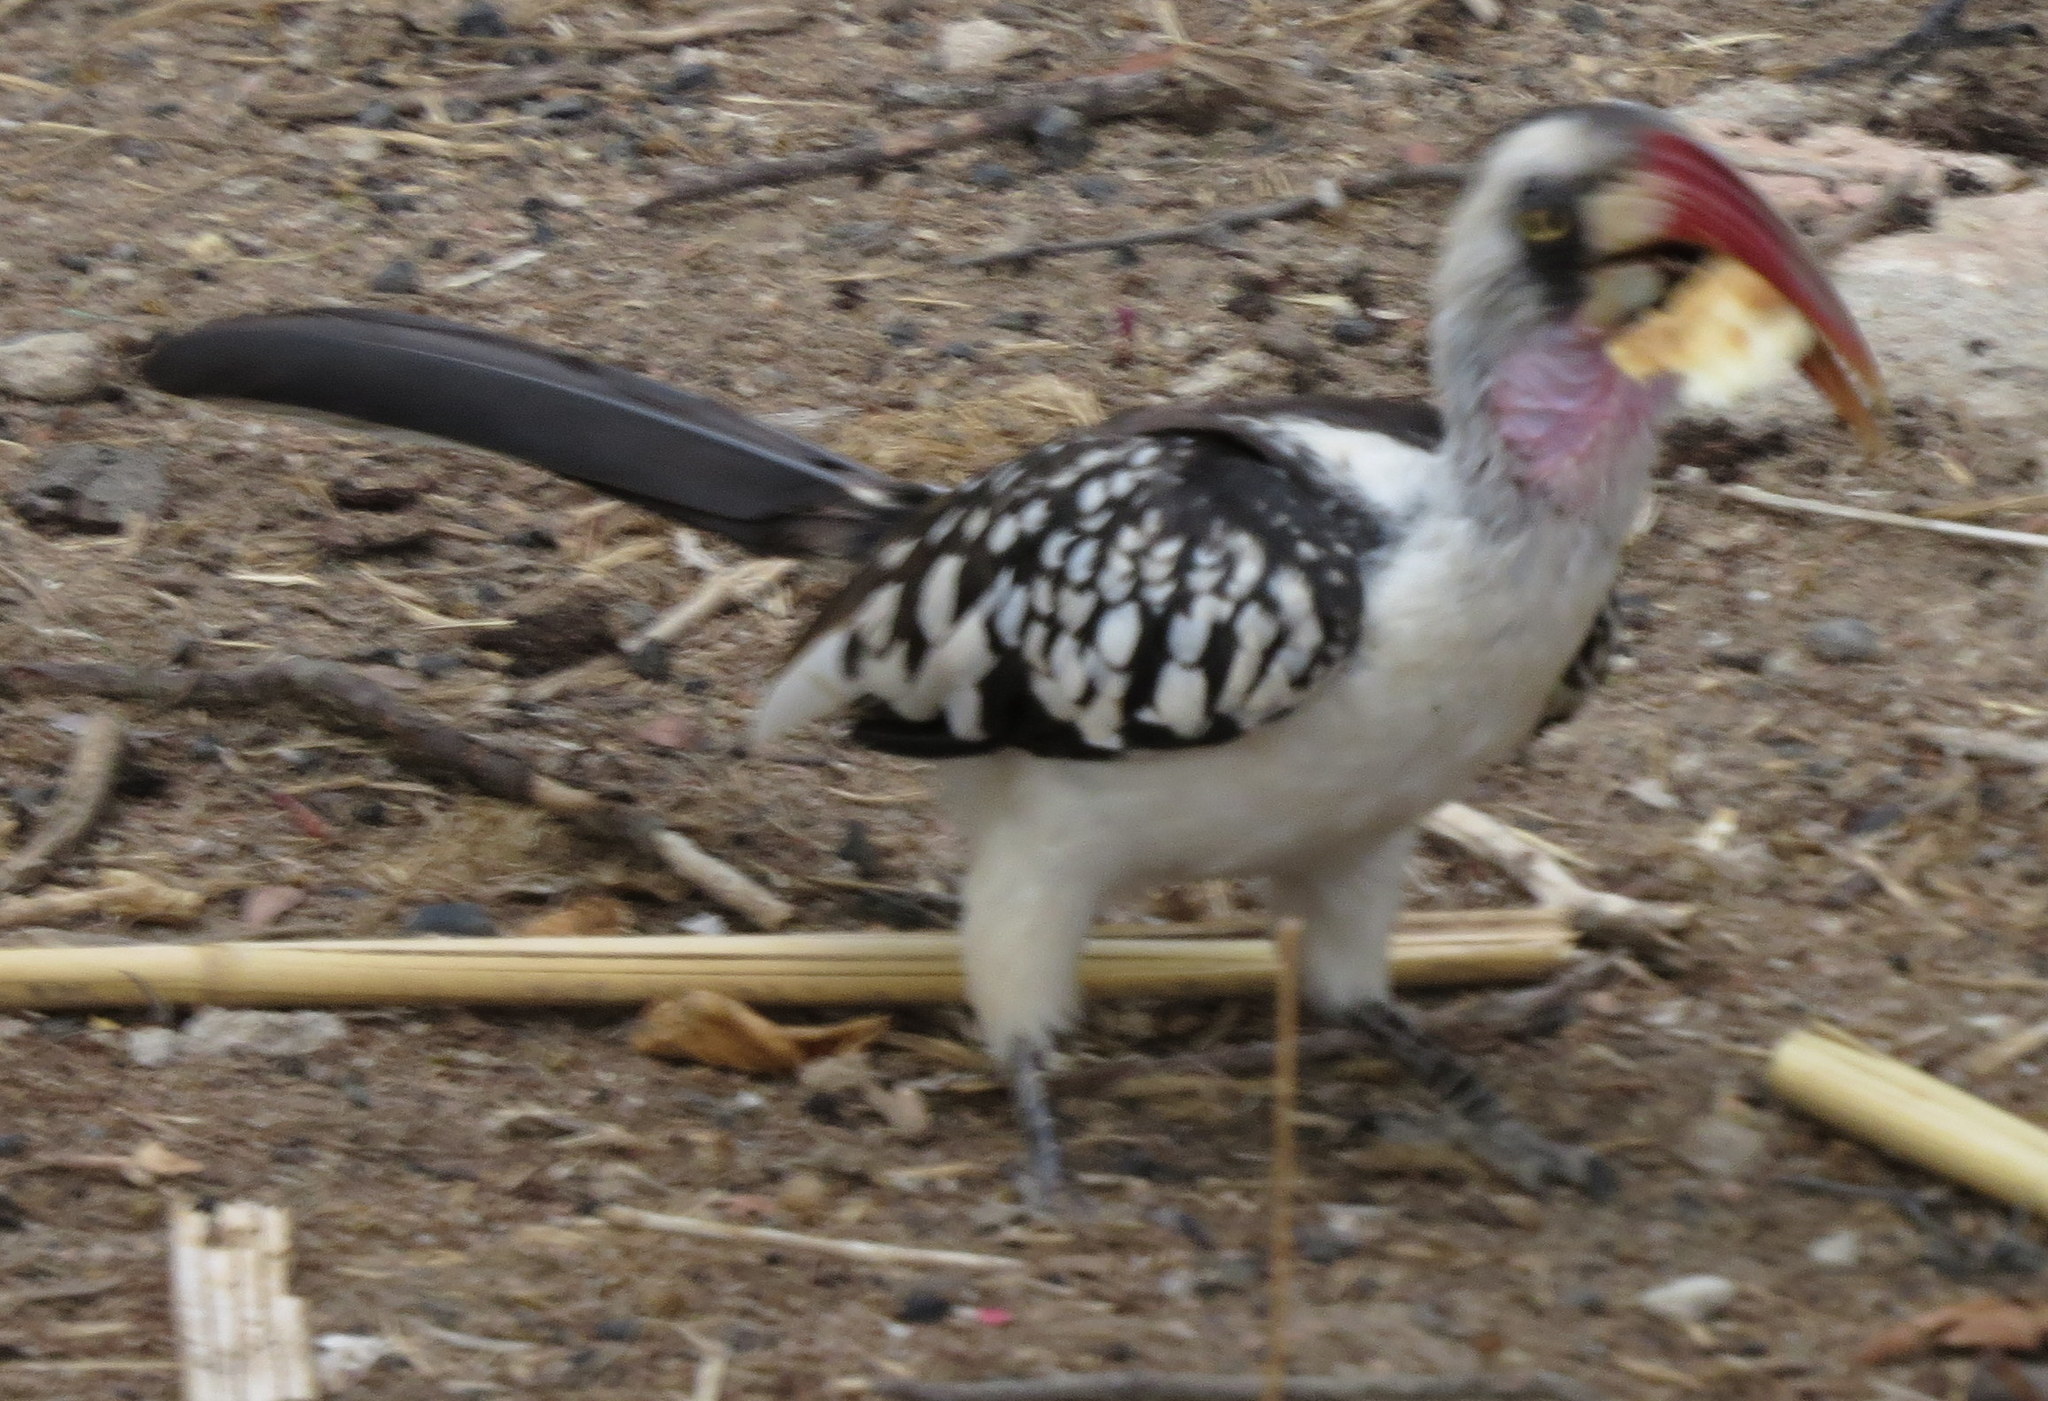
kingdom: Animalia
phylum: Chordata
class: Aves
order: Bucerotiformes
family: Bucerotidae
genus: Tockus
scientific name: Tockus ruahae
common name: Tanzanian red-billed hornbill
